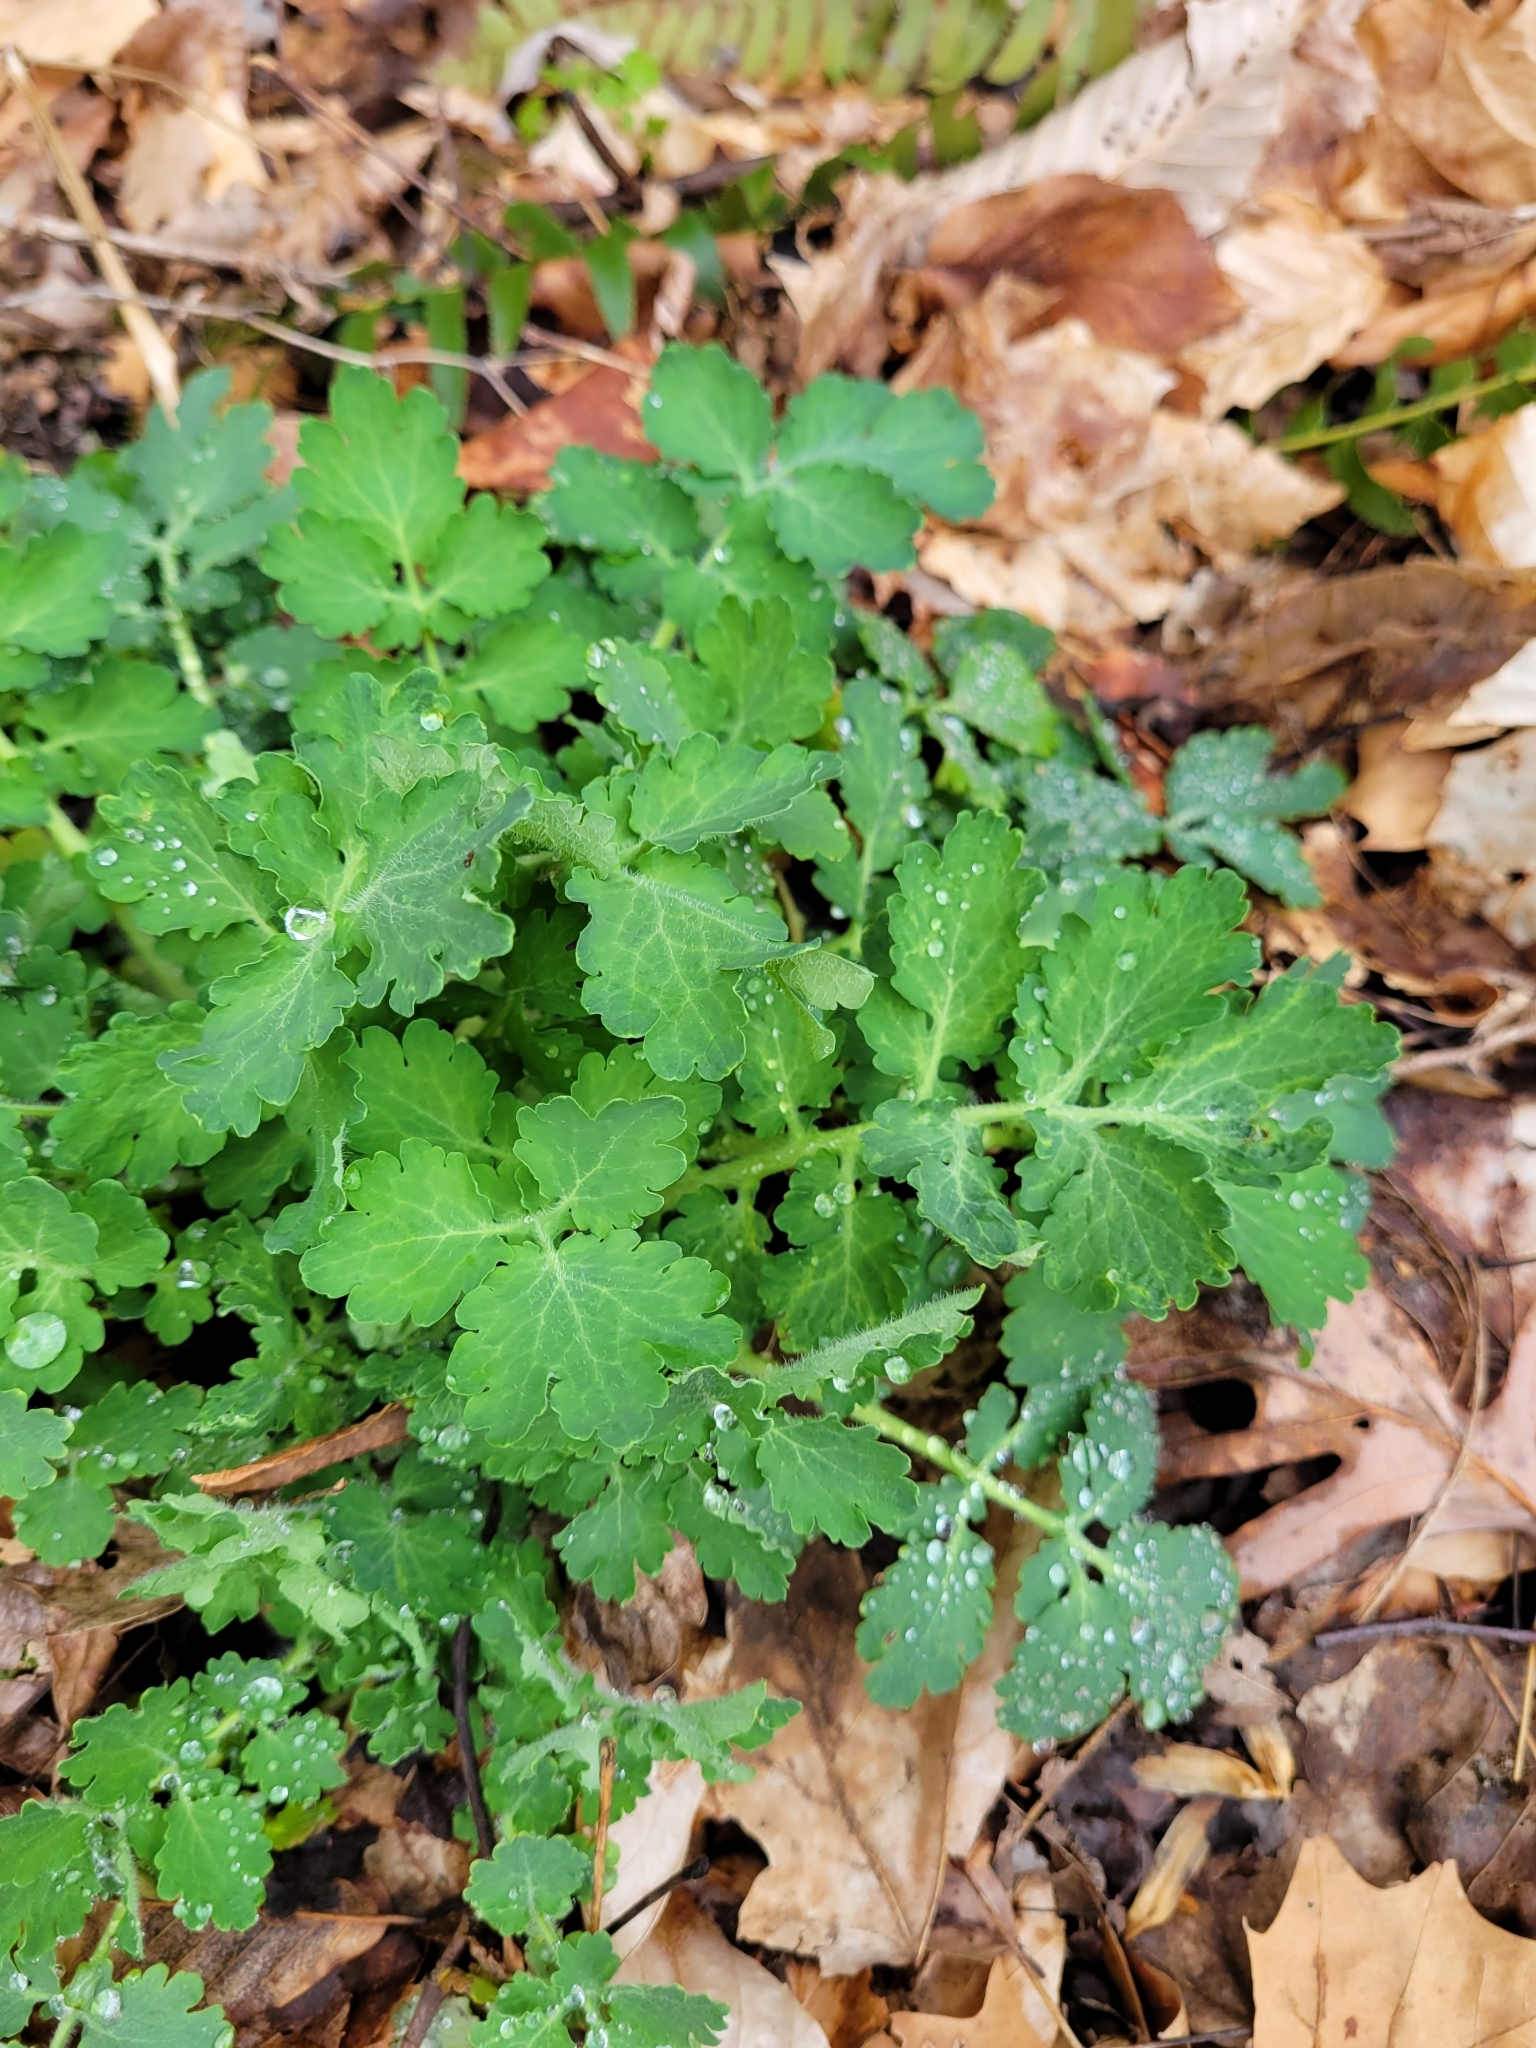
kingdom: Plantae
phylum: Tracheophyta
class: Magnoliopsida
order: Ranunculales
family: Papaveraceae
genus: Chelidonium
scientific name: Chelidonium majus
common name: Greater celandine
